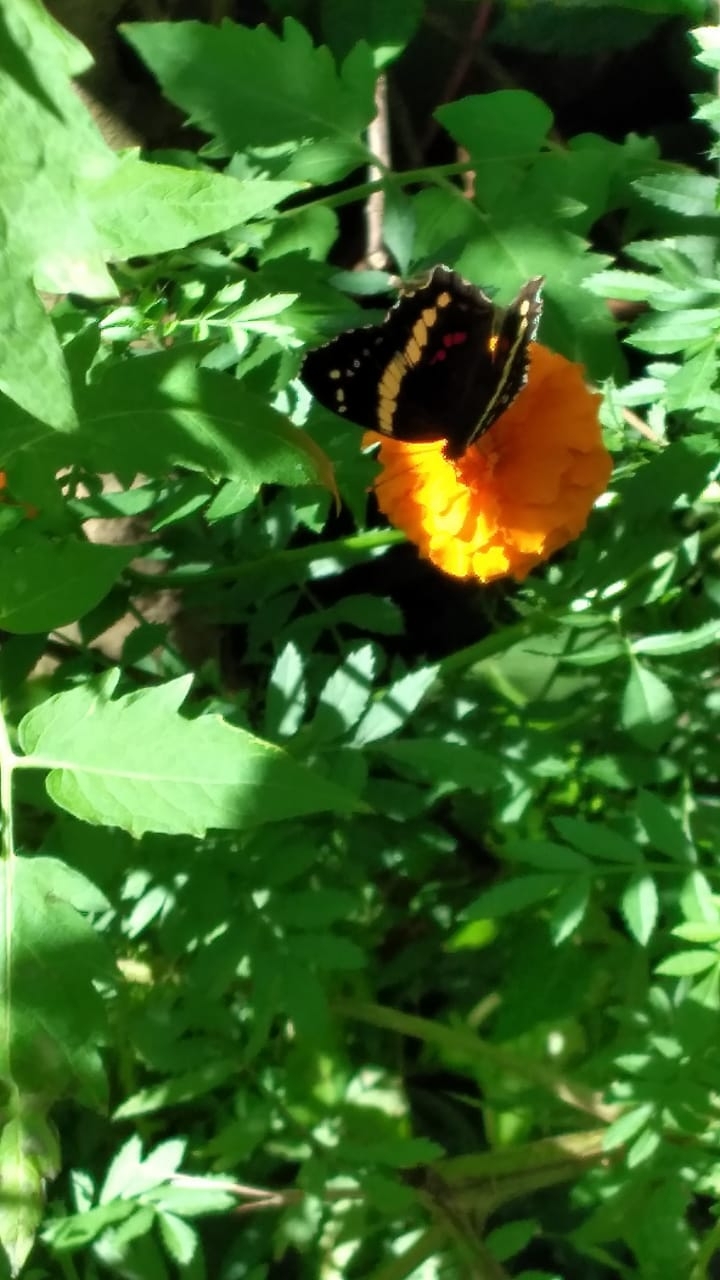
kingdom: Animalia
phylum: Arthropoda
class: Insecta
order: Lepidoptera
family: Nymphalidae
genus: Anartia
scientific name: Anartia fatima
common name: Banded peacock
